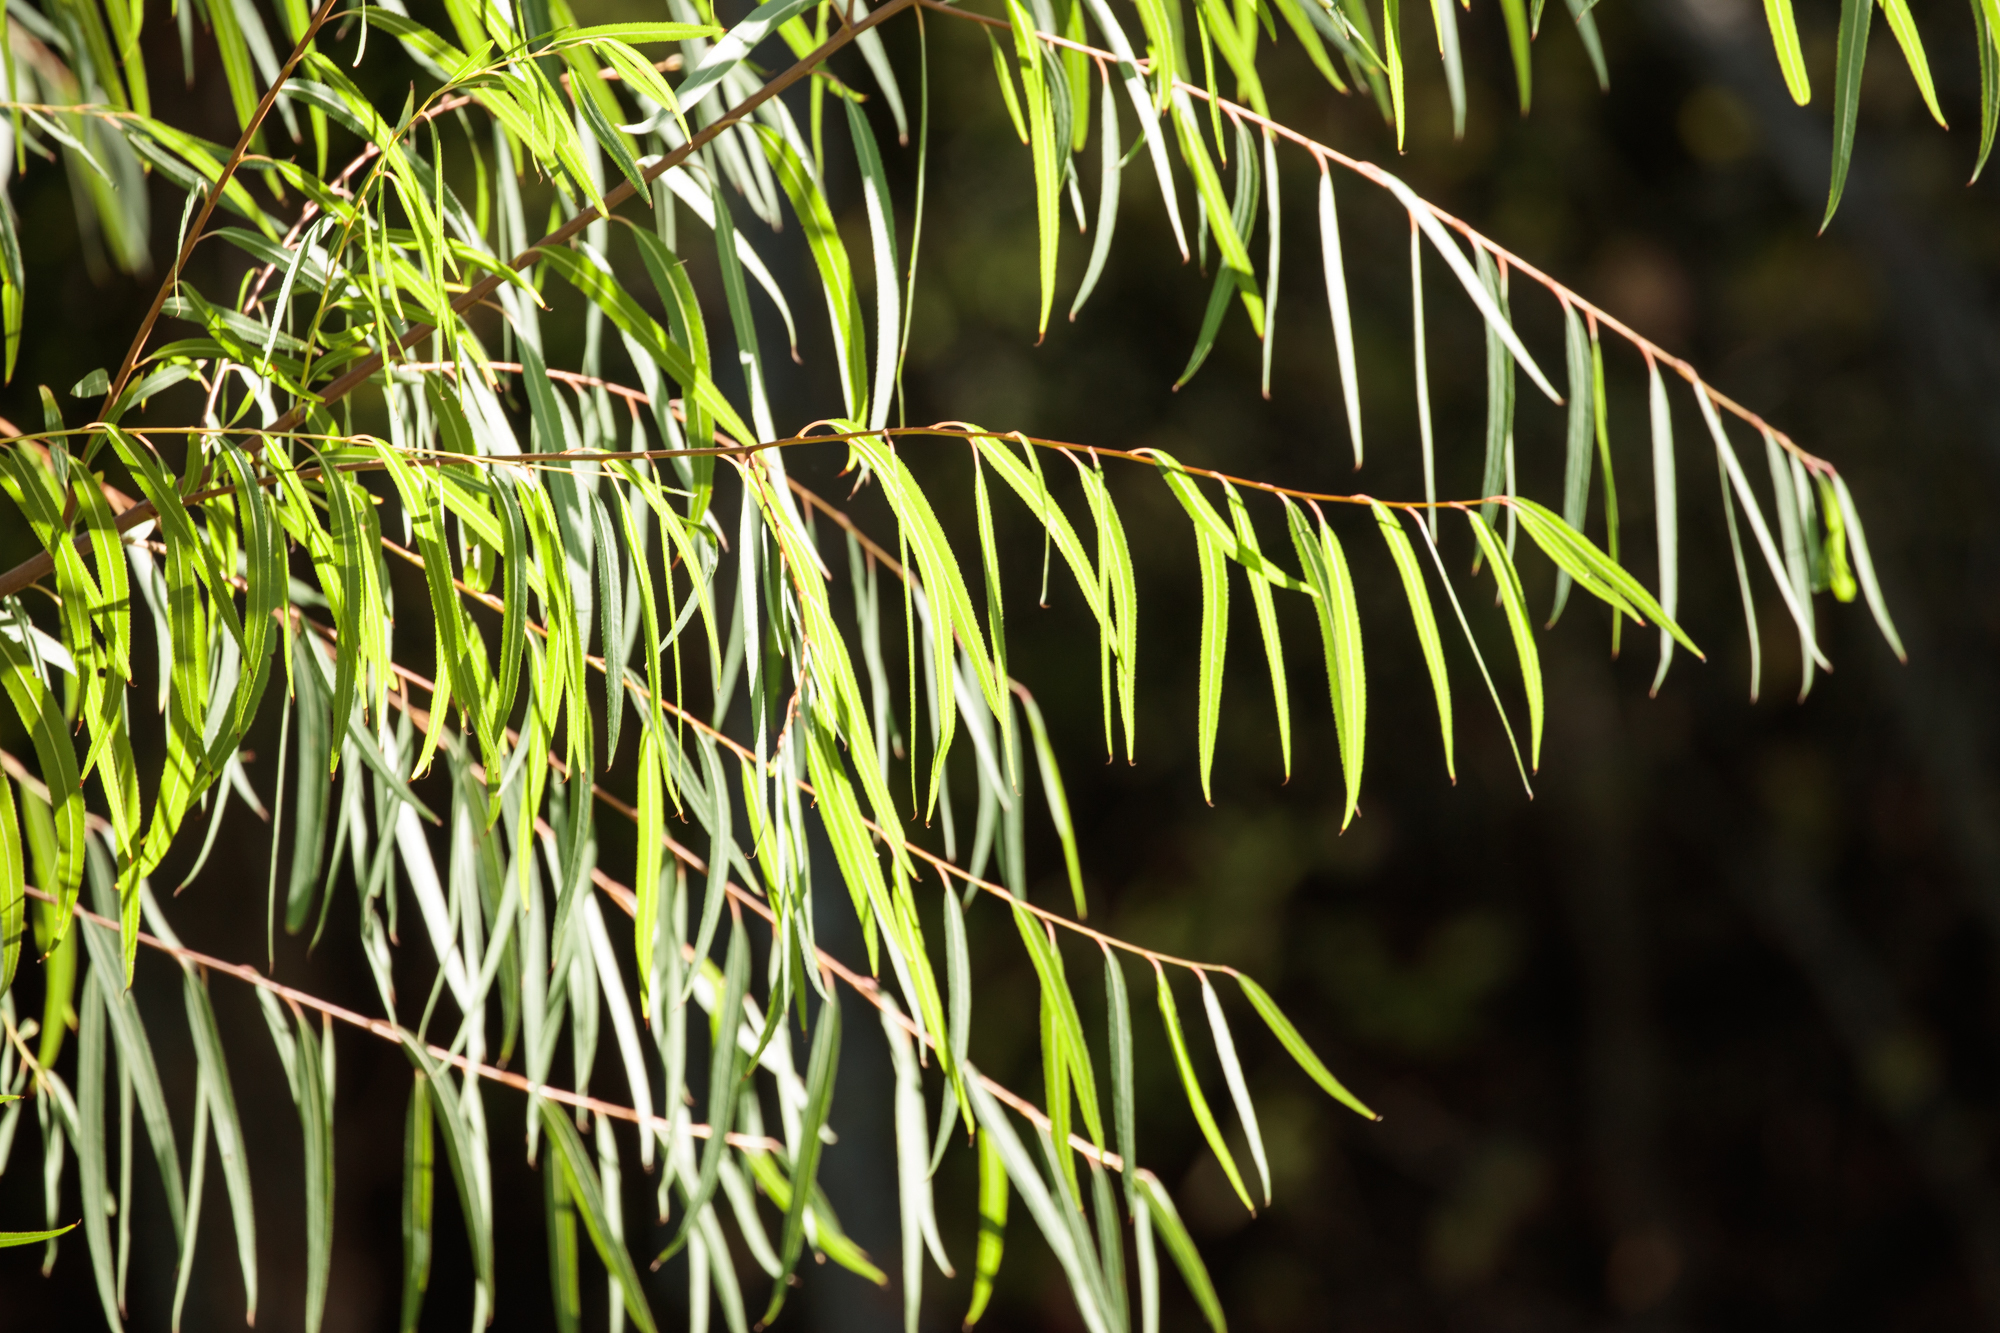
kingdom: Plantae
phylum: Tracheophyta
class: Magnoliopsida
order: Malpighiales
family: Salicaceae
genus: Salix
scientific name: Salix nigra
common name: Black willow
